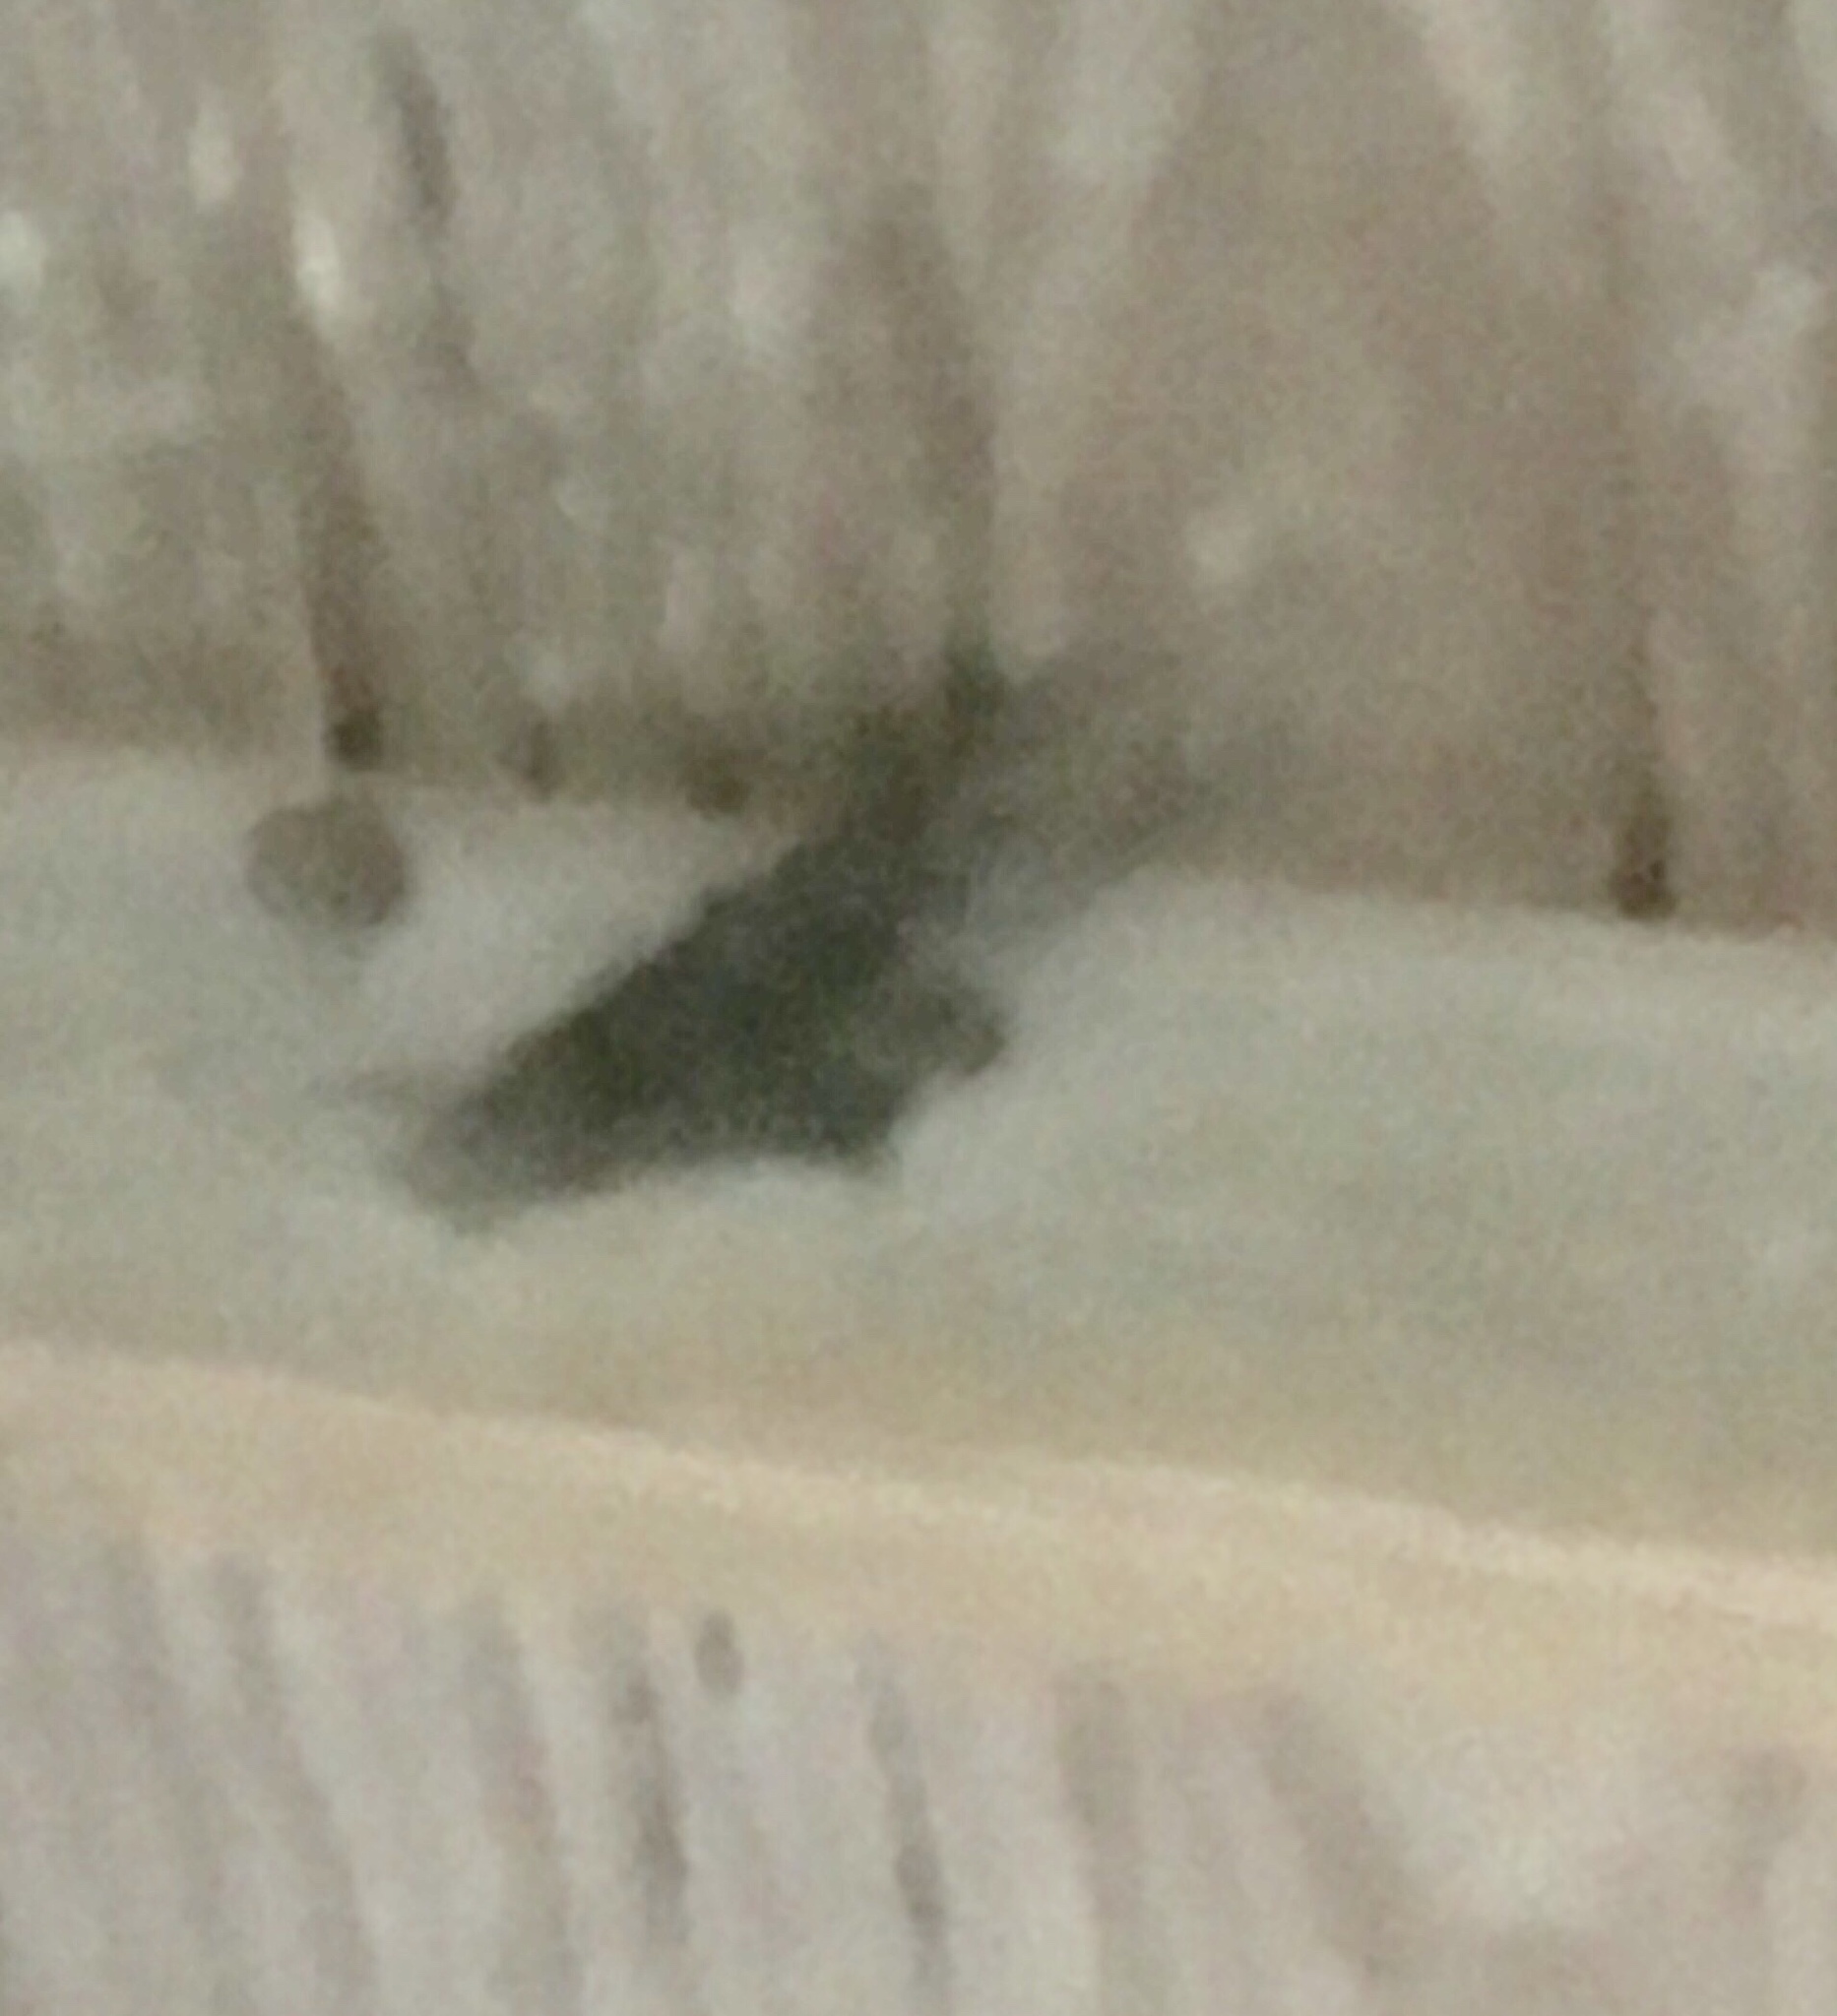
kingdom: Animalia
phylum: Arthropoda
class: Insecta
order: Lepidoptera
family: Erebidae
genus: Ascalapha
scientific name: Ascalapha odorata
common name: Black witch
